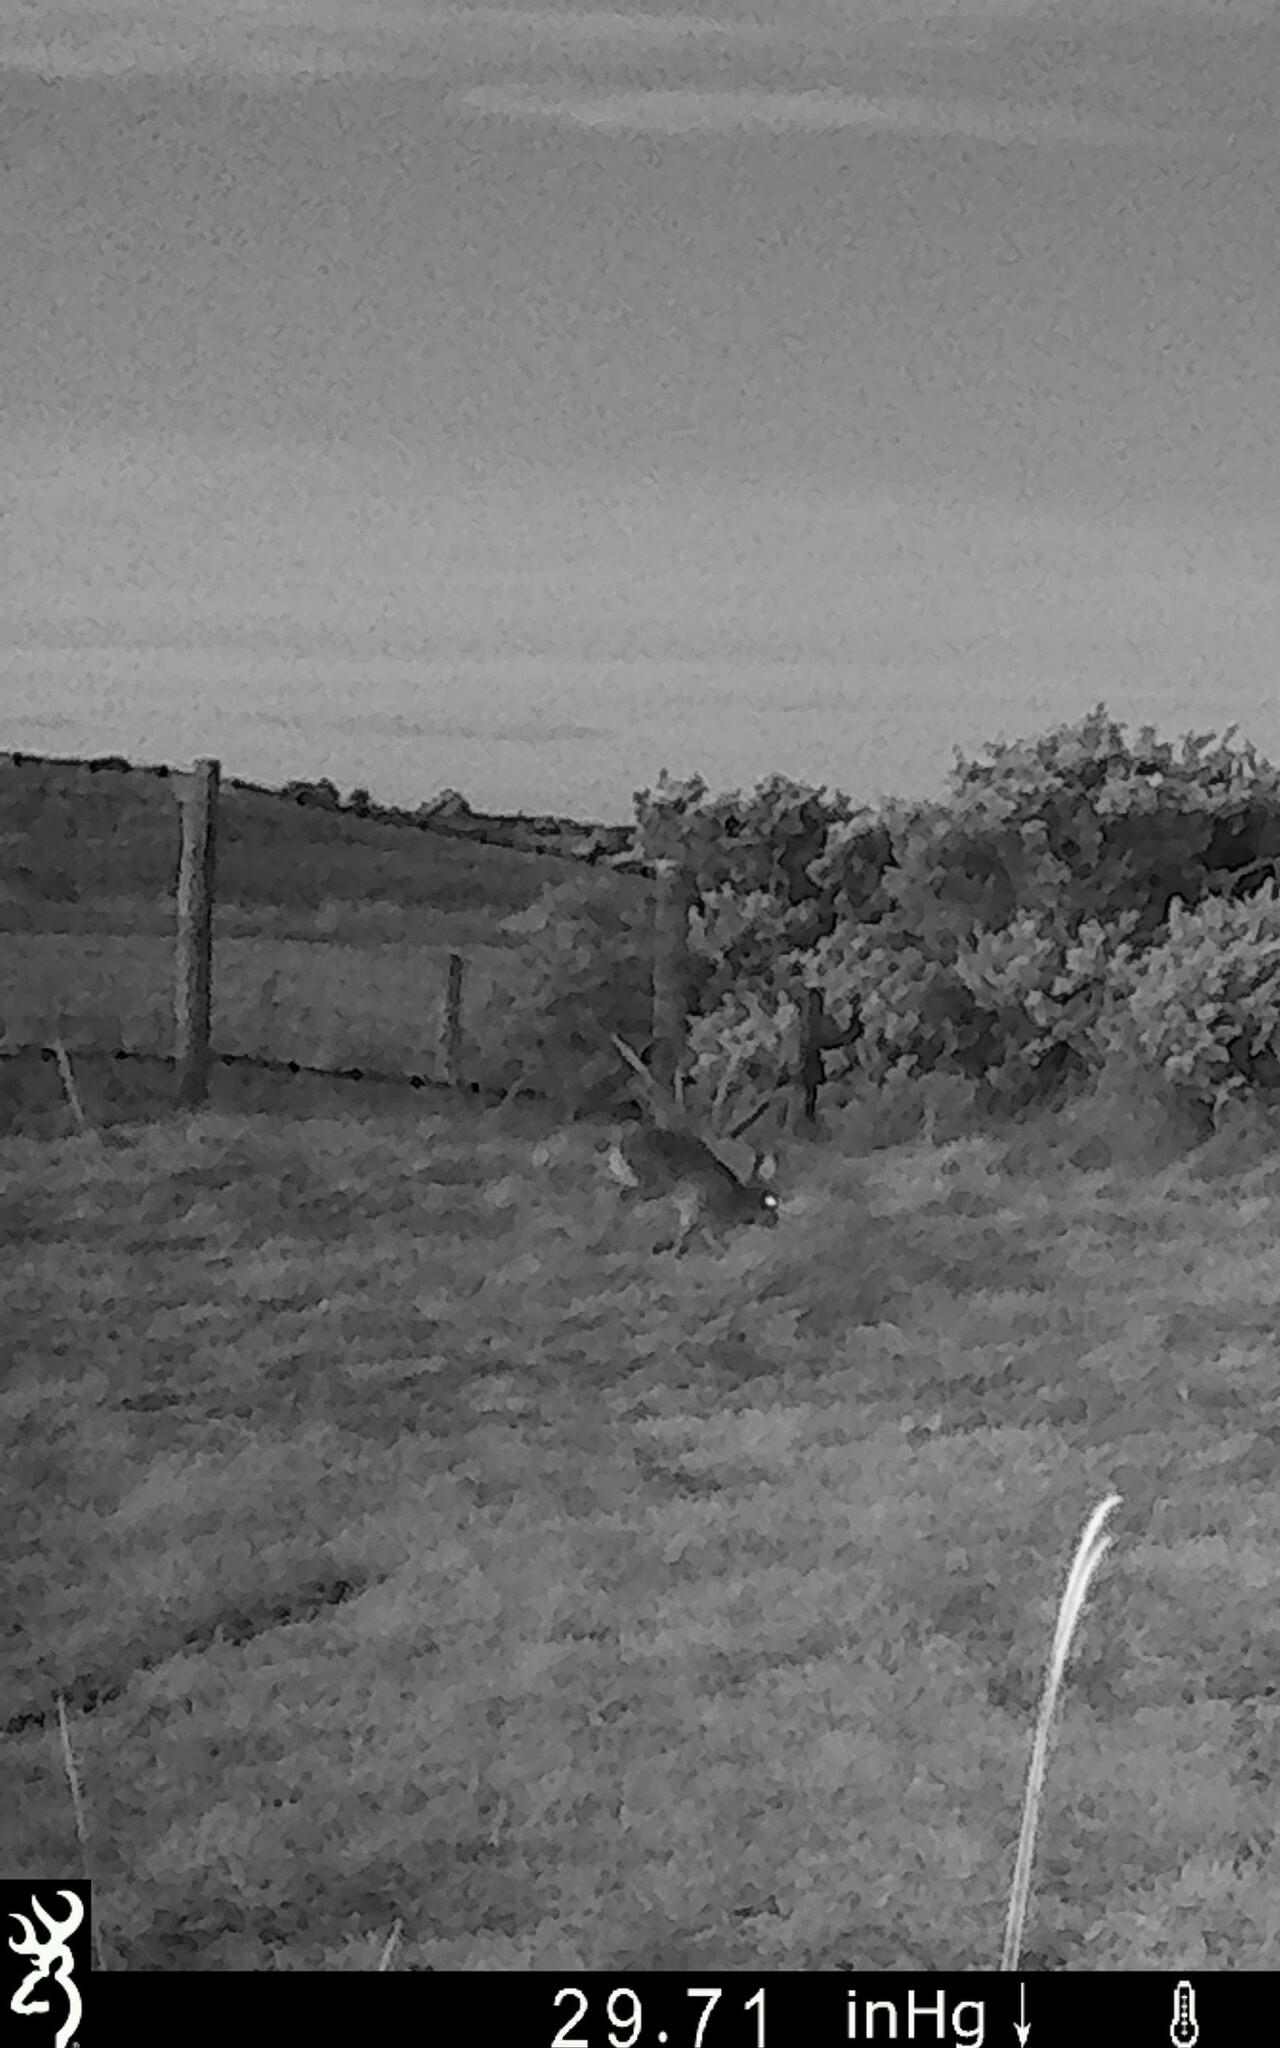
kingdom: Animalia
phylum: Chordata
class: Mammalia
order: Lagomorpha
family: Leporidae
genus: Lepus
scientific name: Lepus europaeus
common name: European hare
